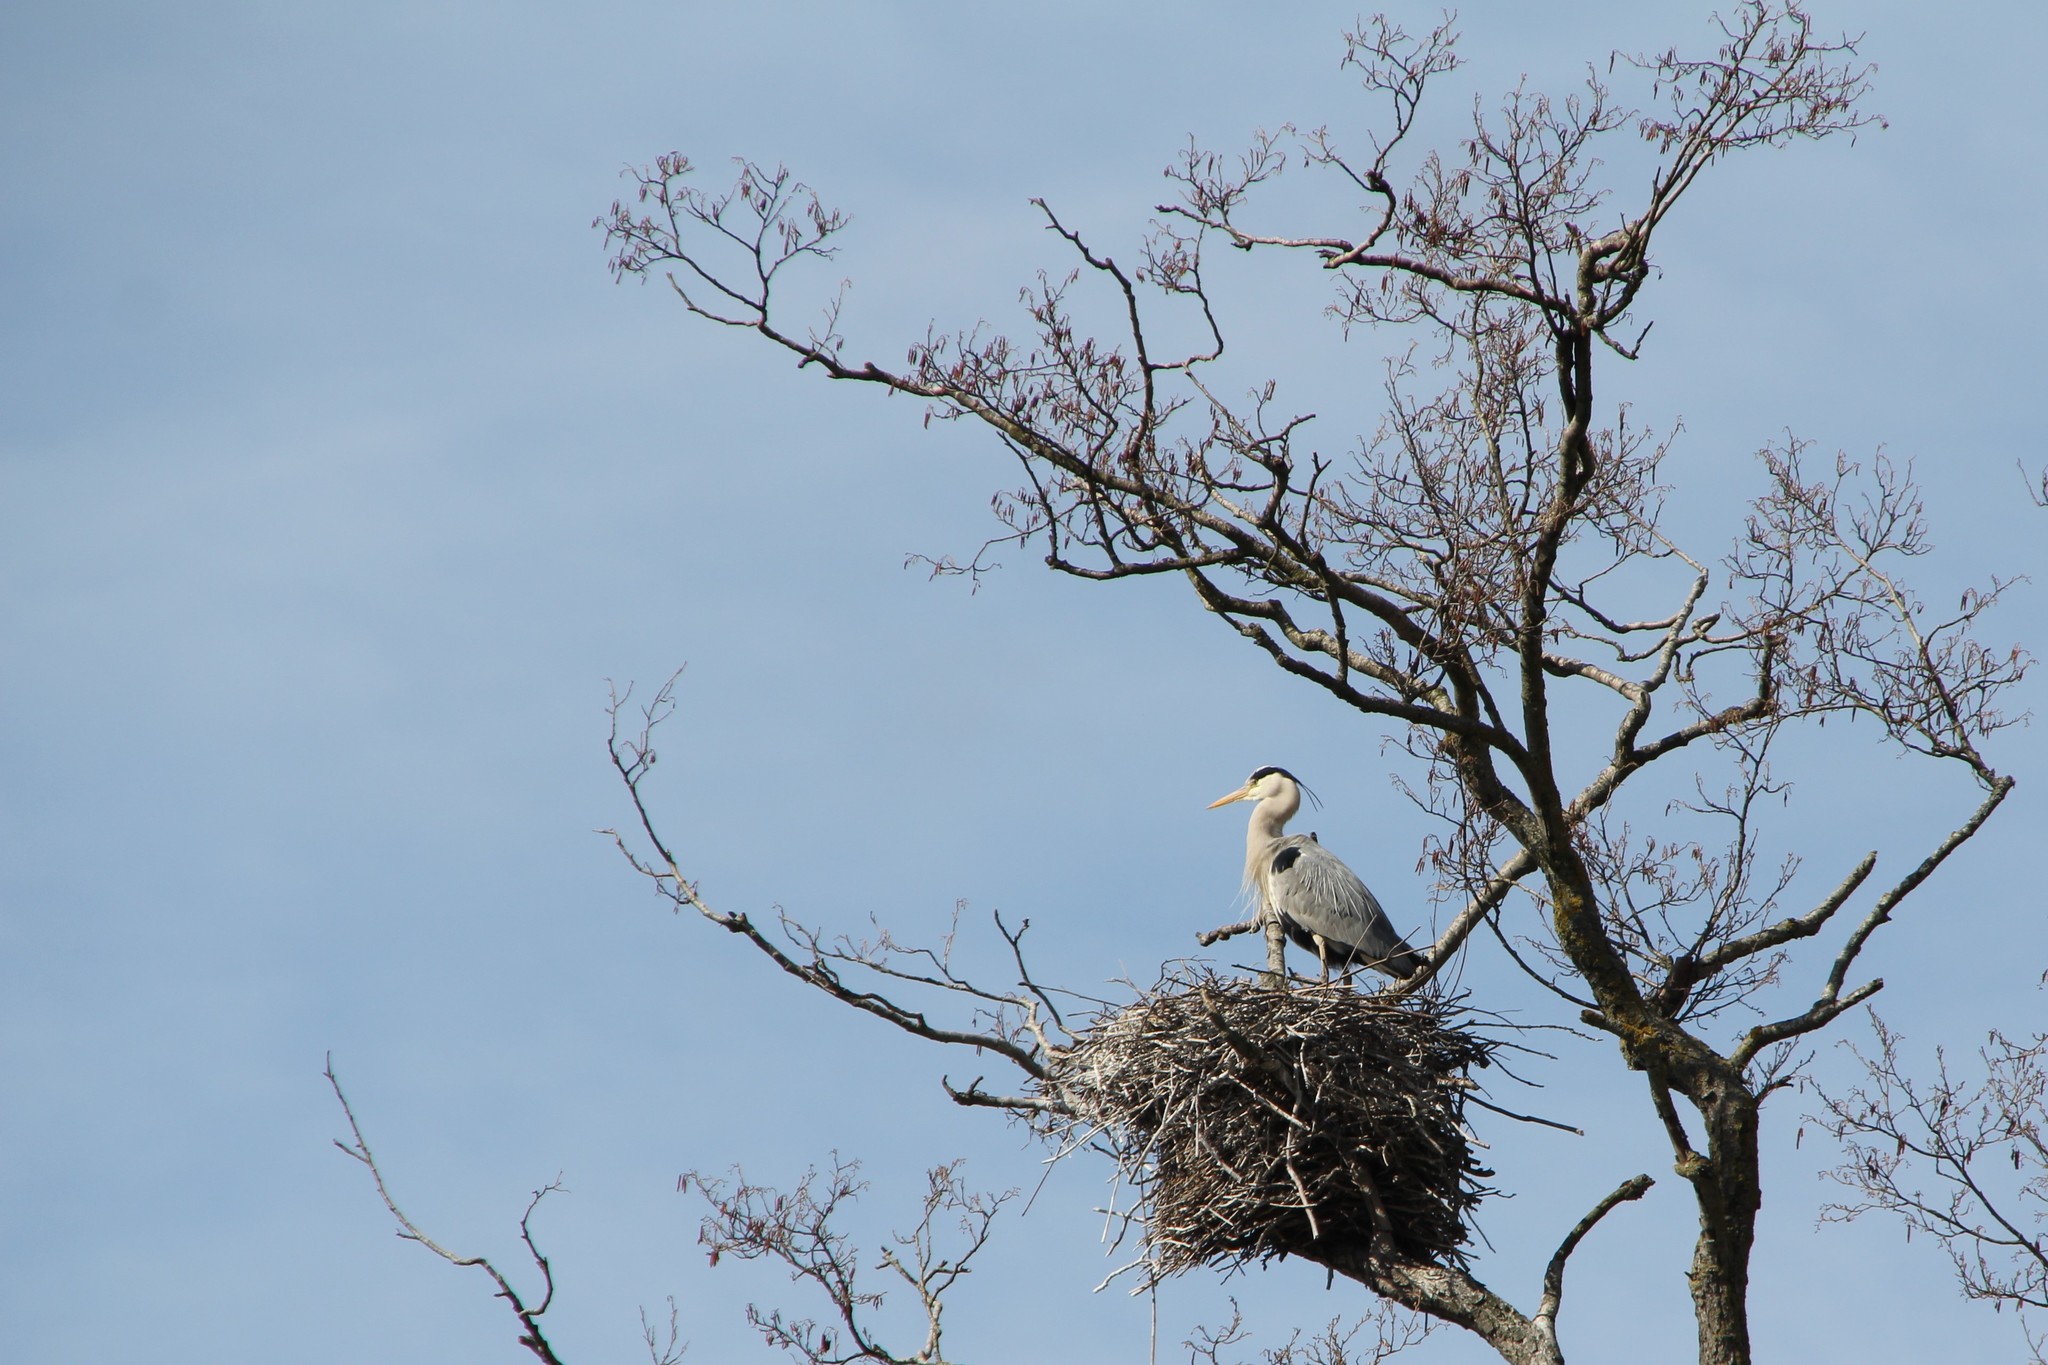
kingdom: Animalia
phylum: Chordata
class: Aves
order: Pelecaniformes
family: Ardeidae
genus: Ardea
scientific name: Ardea cinerea
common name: Grey heron
